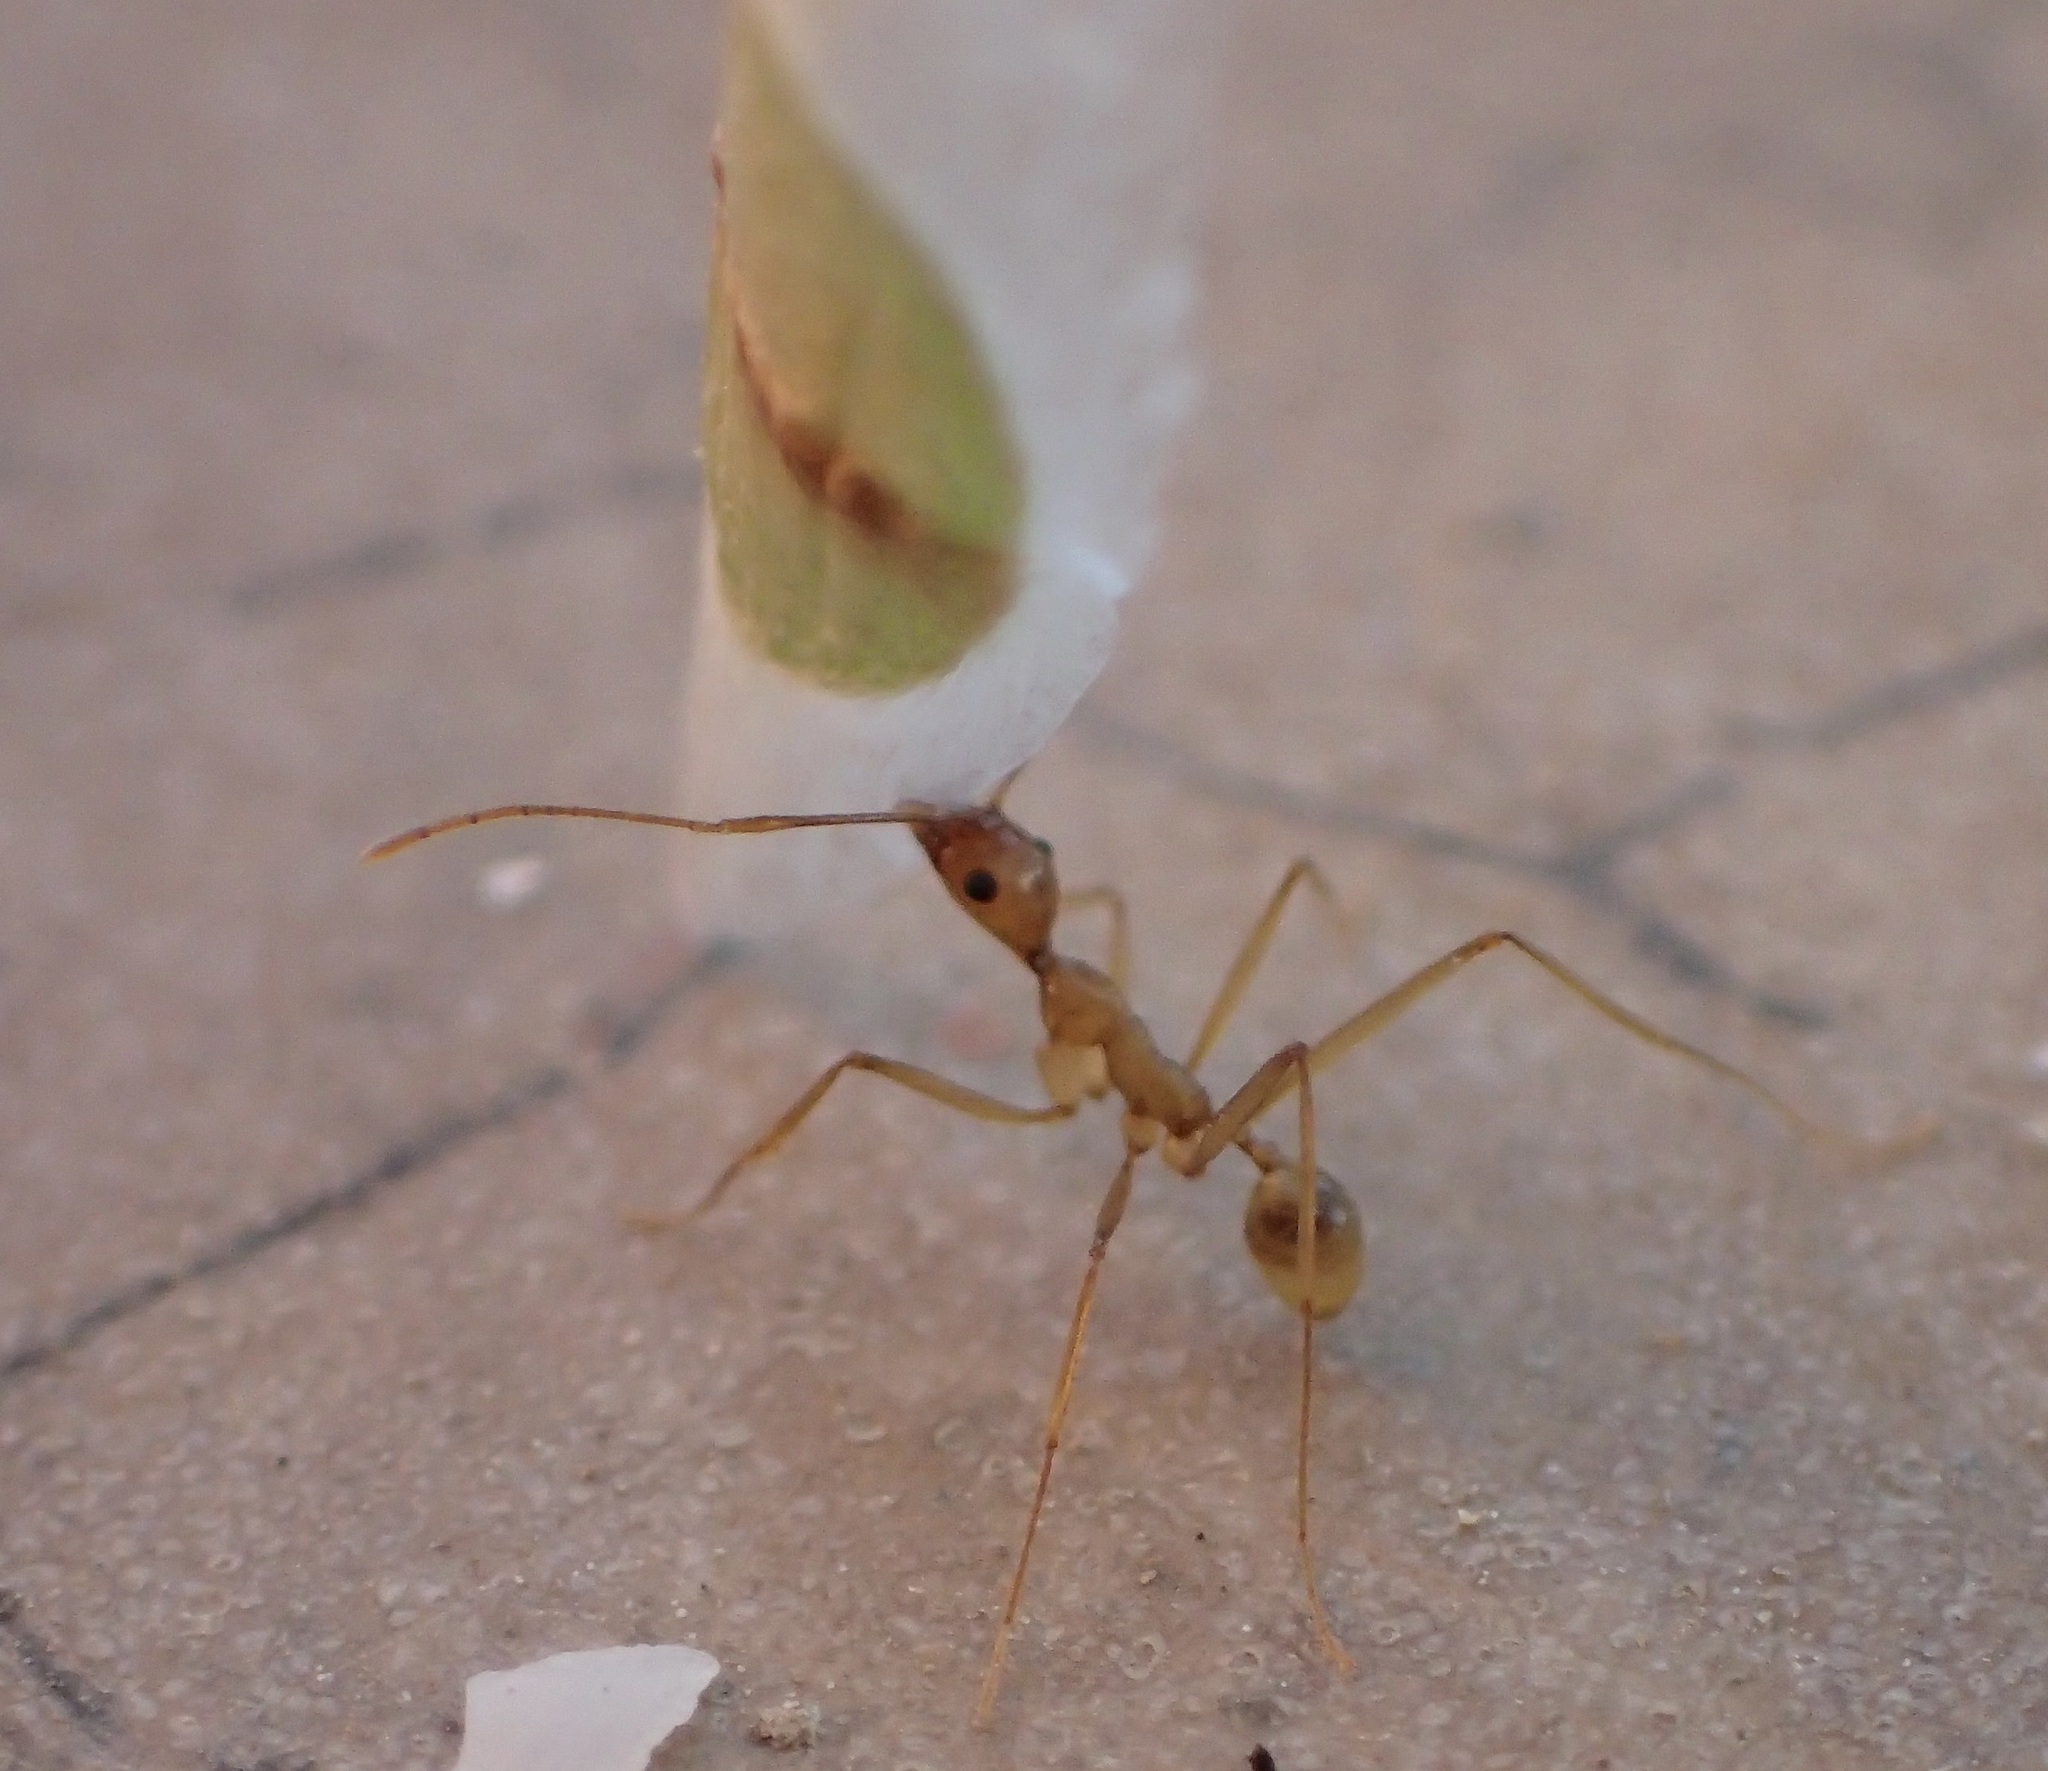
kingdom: Animalia
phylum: Arthropoda
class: Insecta
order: Hymenoptera
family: Formicidae
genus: Pheidole
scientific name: Pheidole vistana
